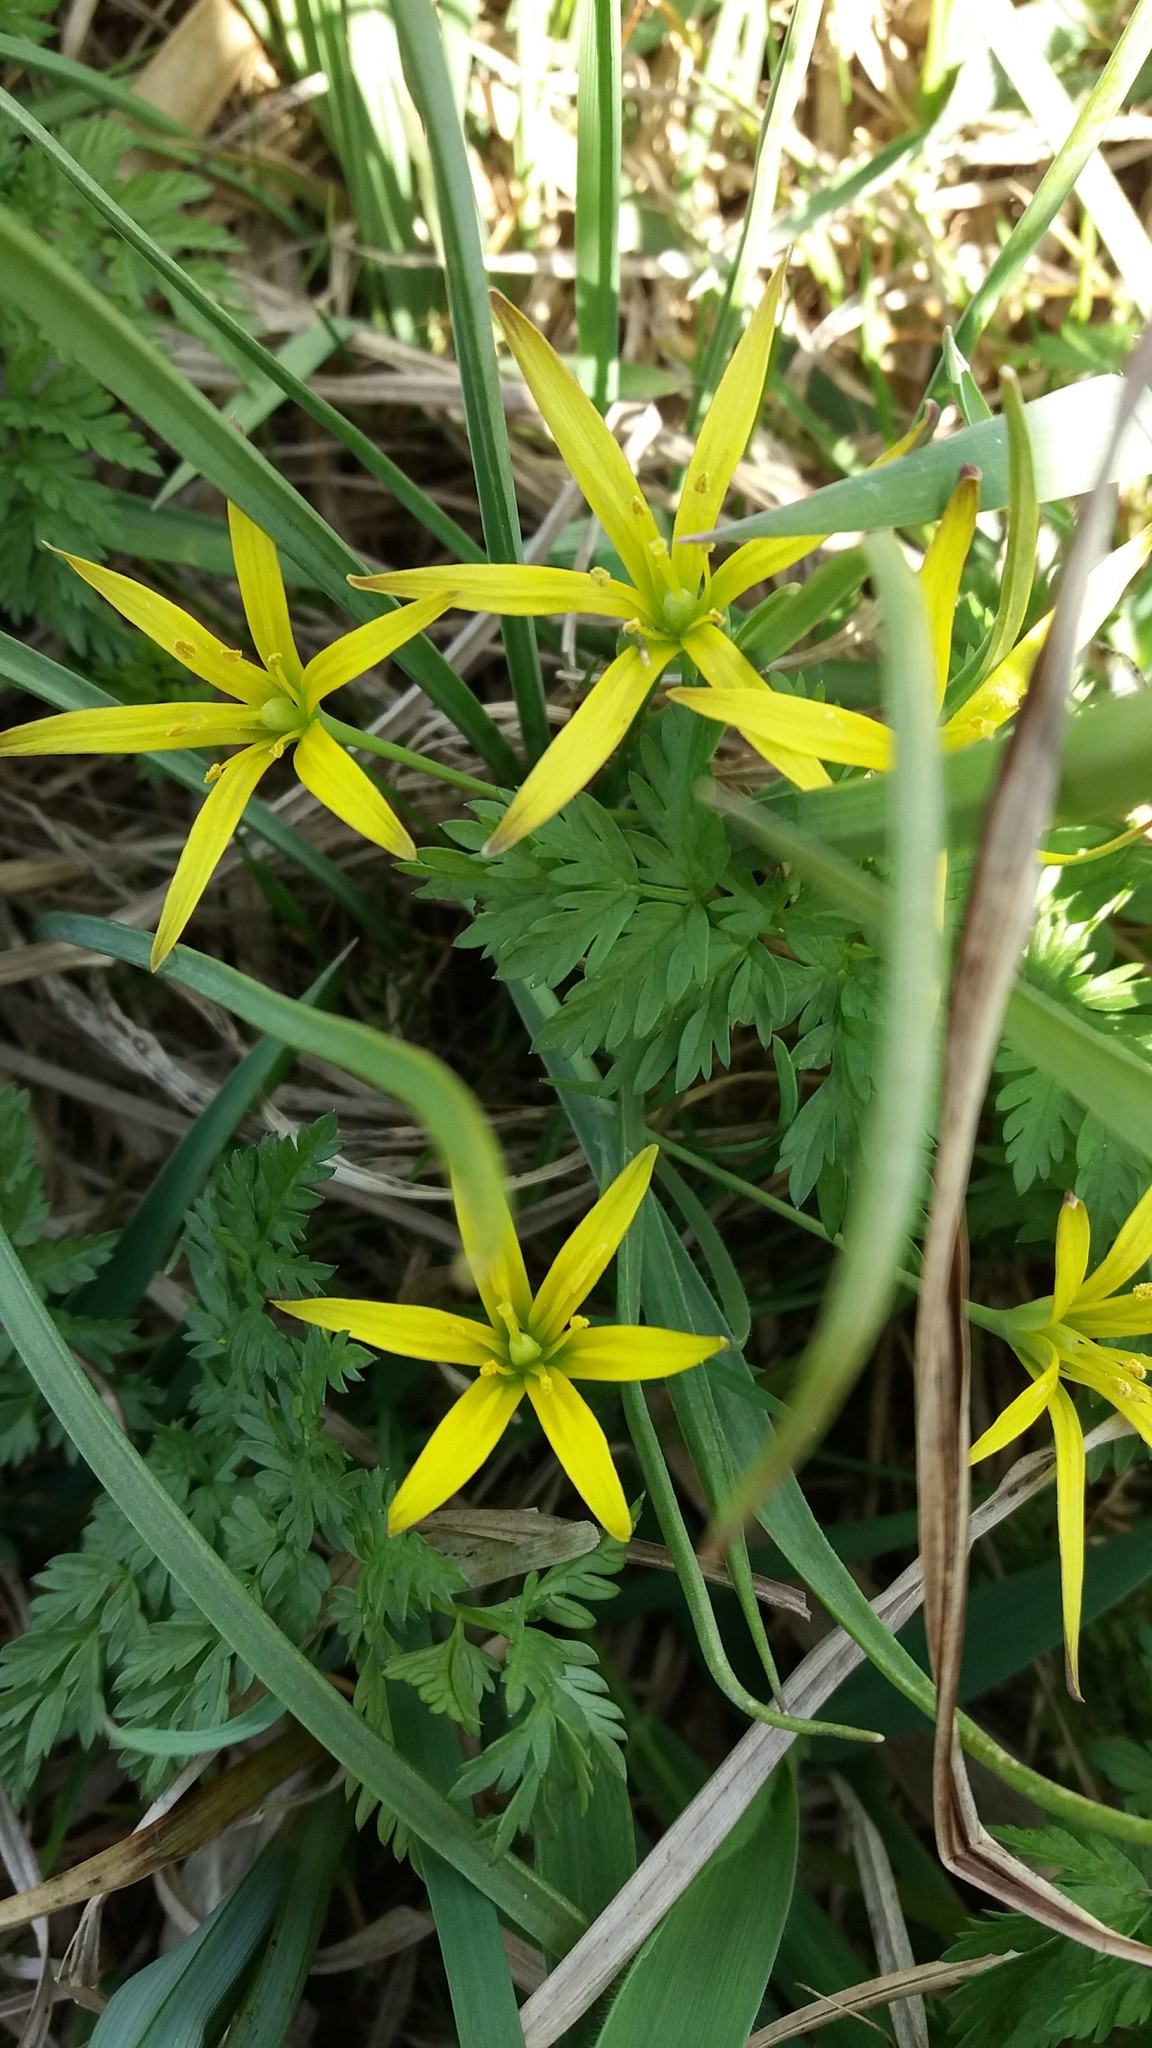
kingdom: Plantae
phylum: Tracheophyta
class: Liliopsida
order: Liliales
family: Liliaceae
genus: Gagea
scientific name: Gagea
